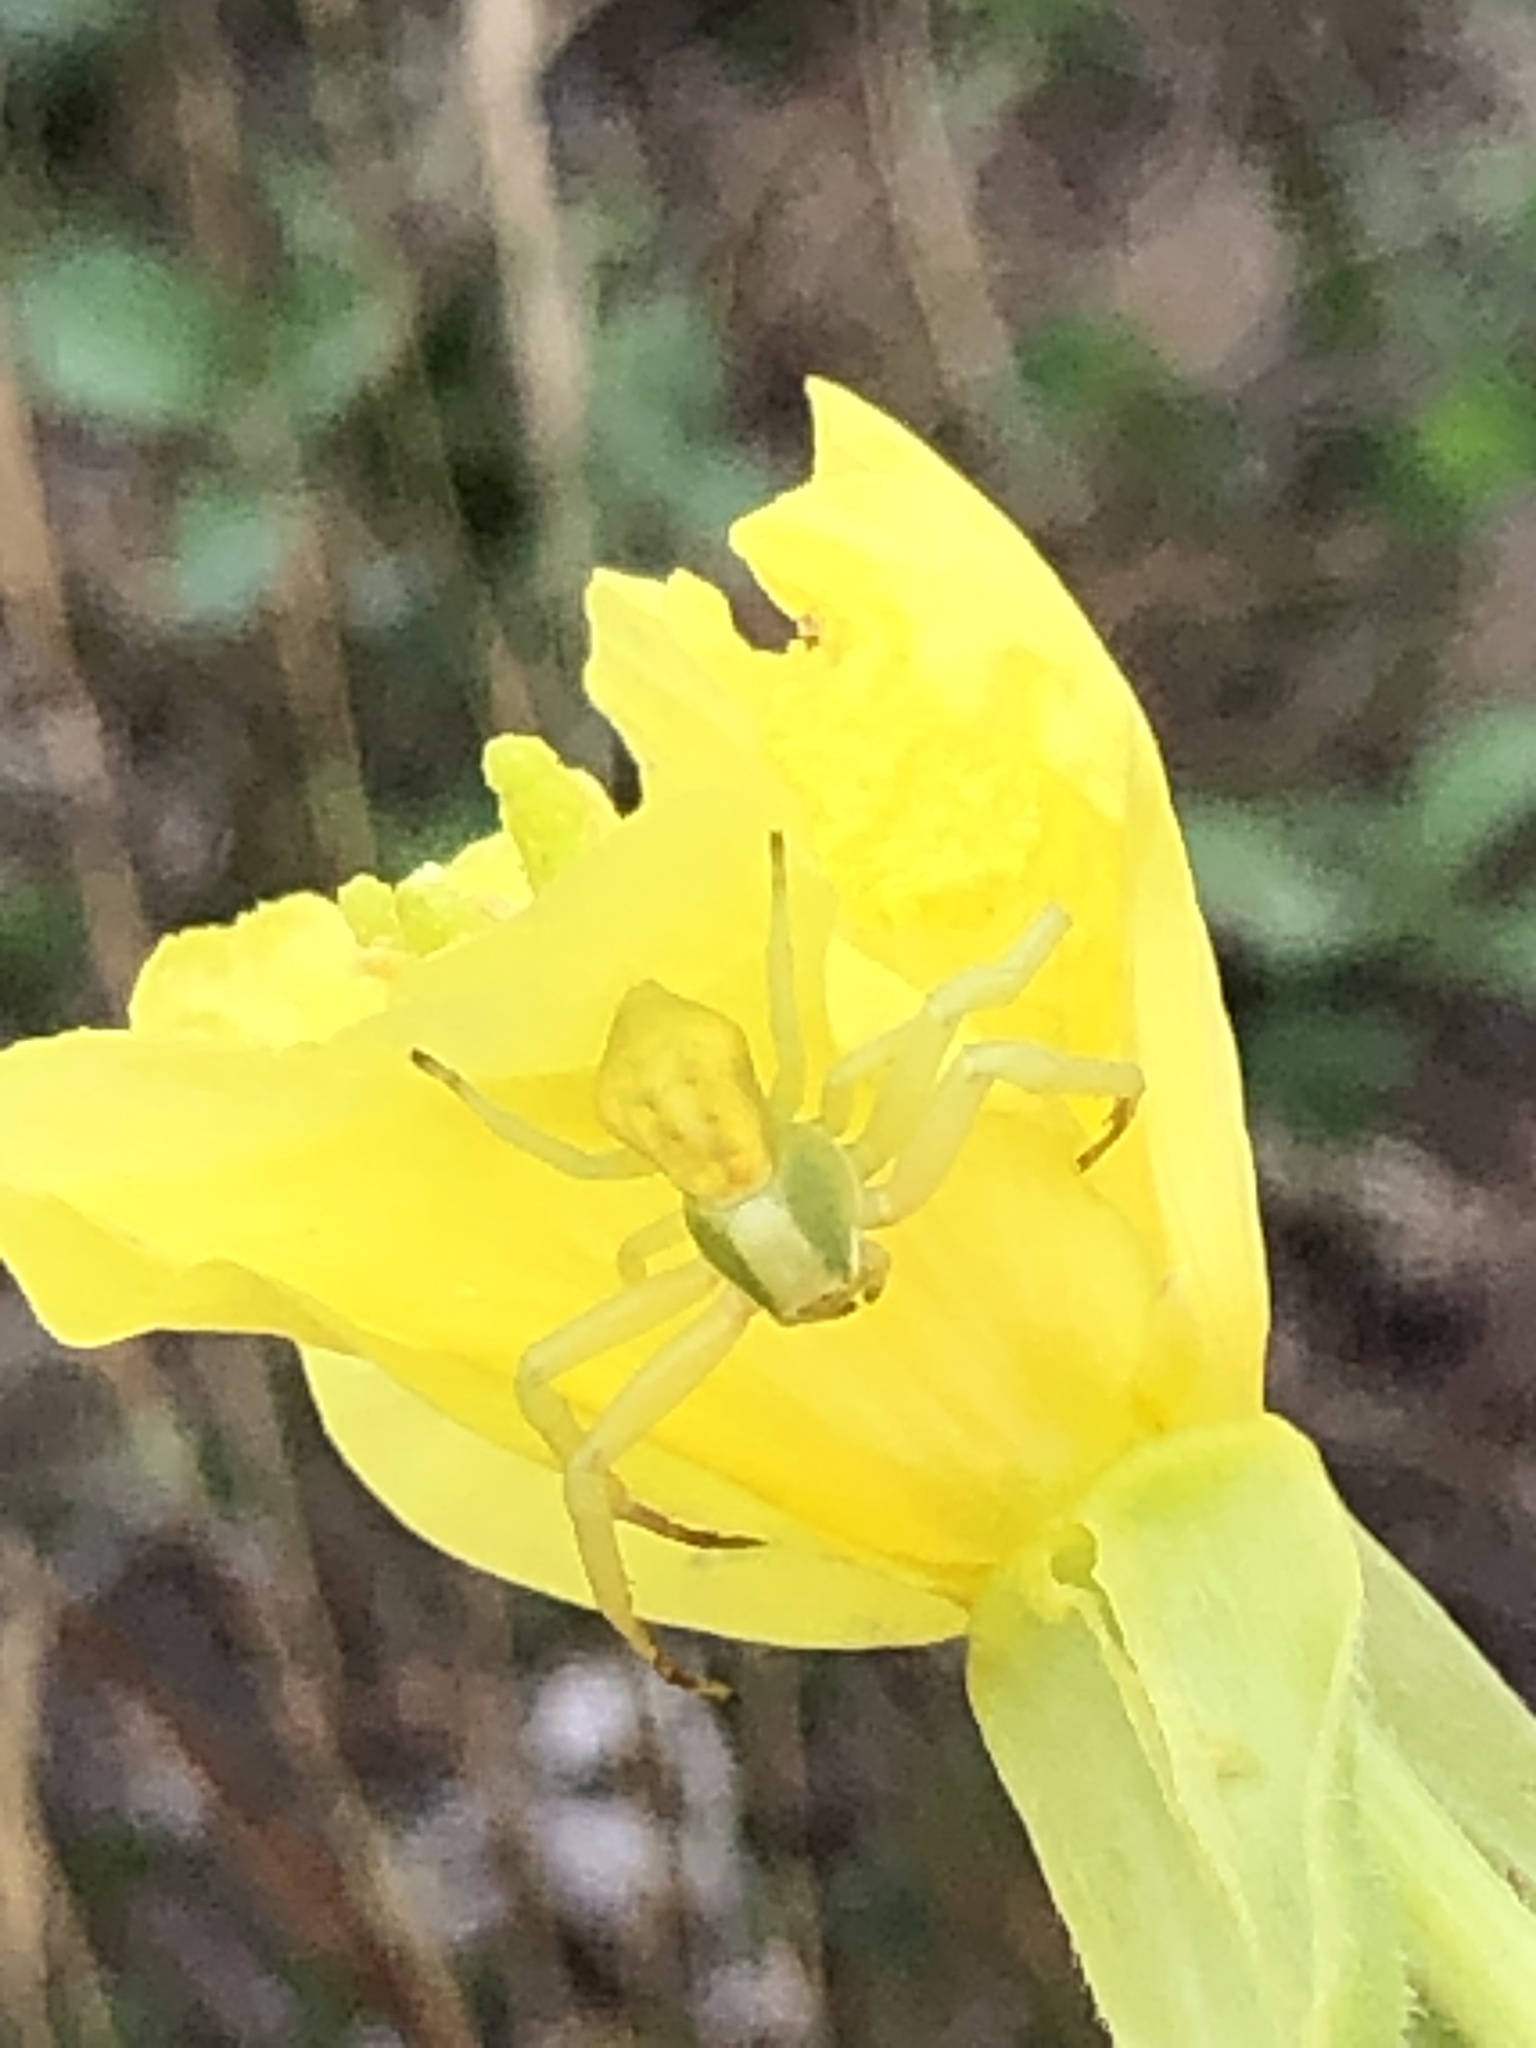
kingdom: Animalia
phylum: Arthropoda
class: Arachnida
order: Araneae
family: Thomisidae
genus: Misumenoides
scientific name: Misumenoides formosipes
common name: White-banded crab spider
